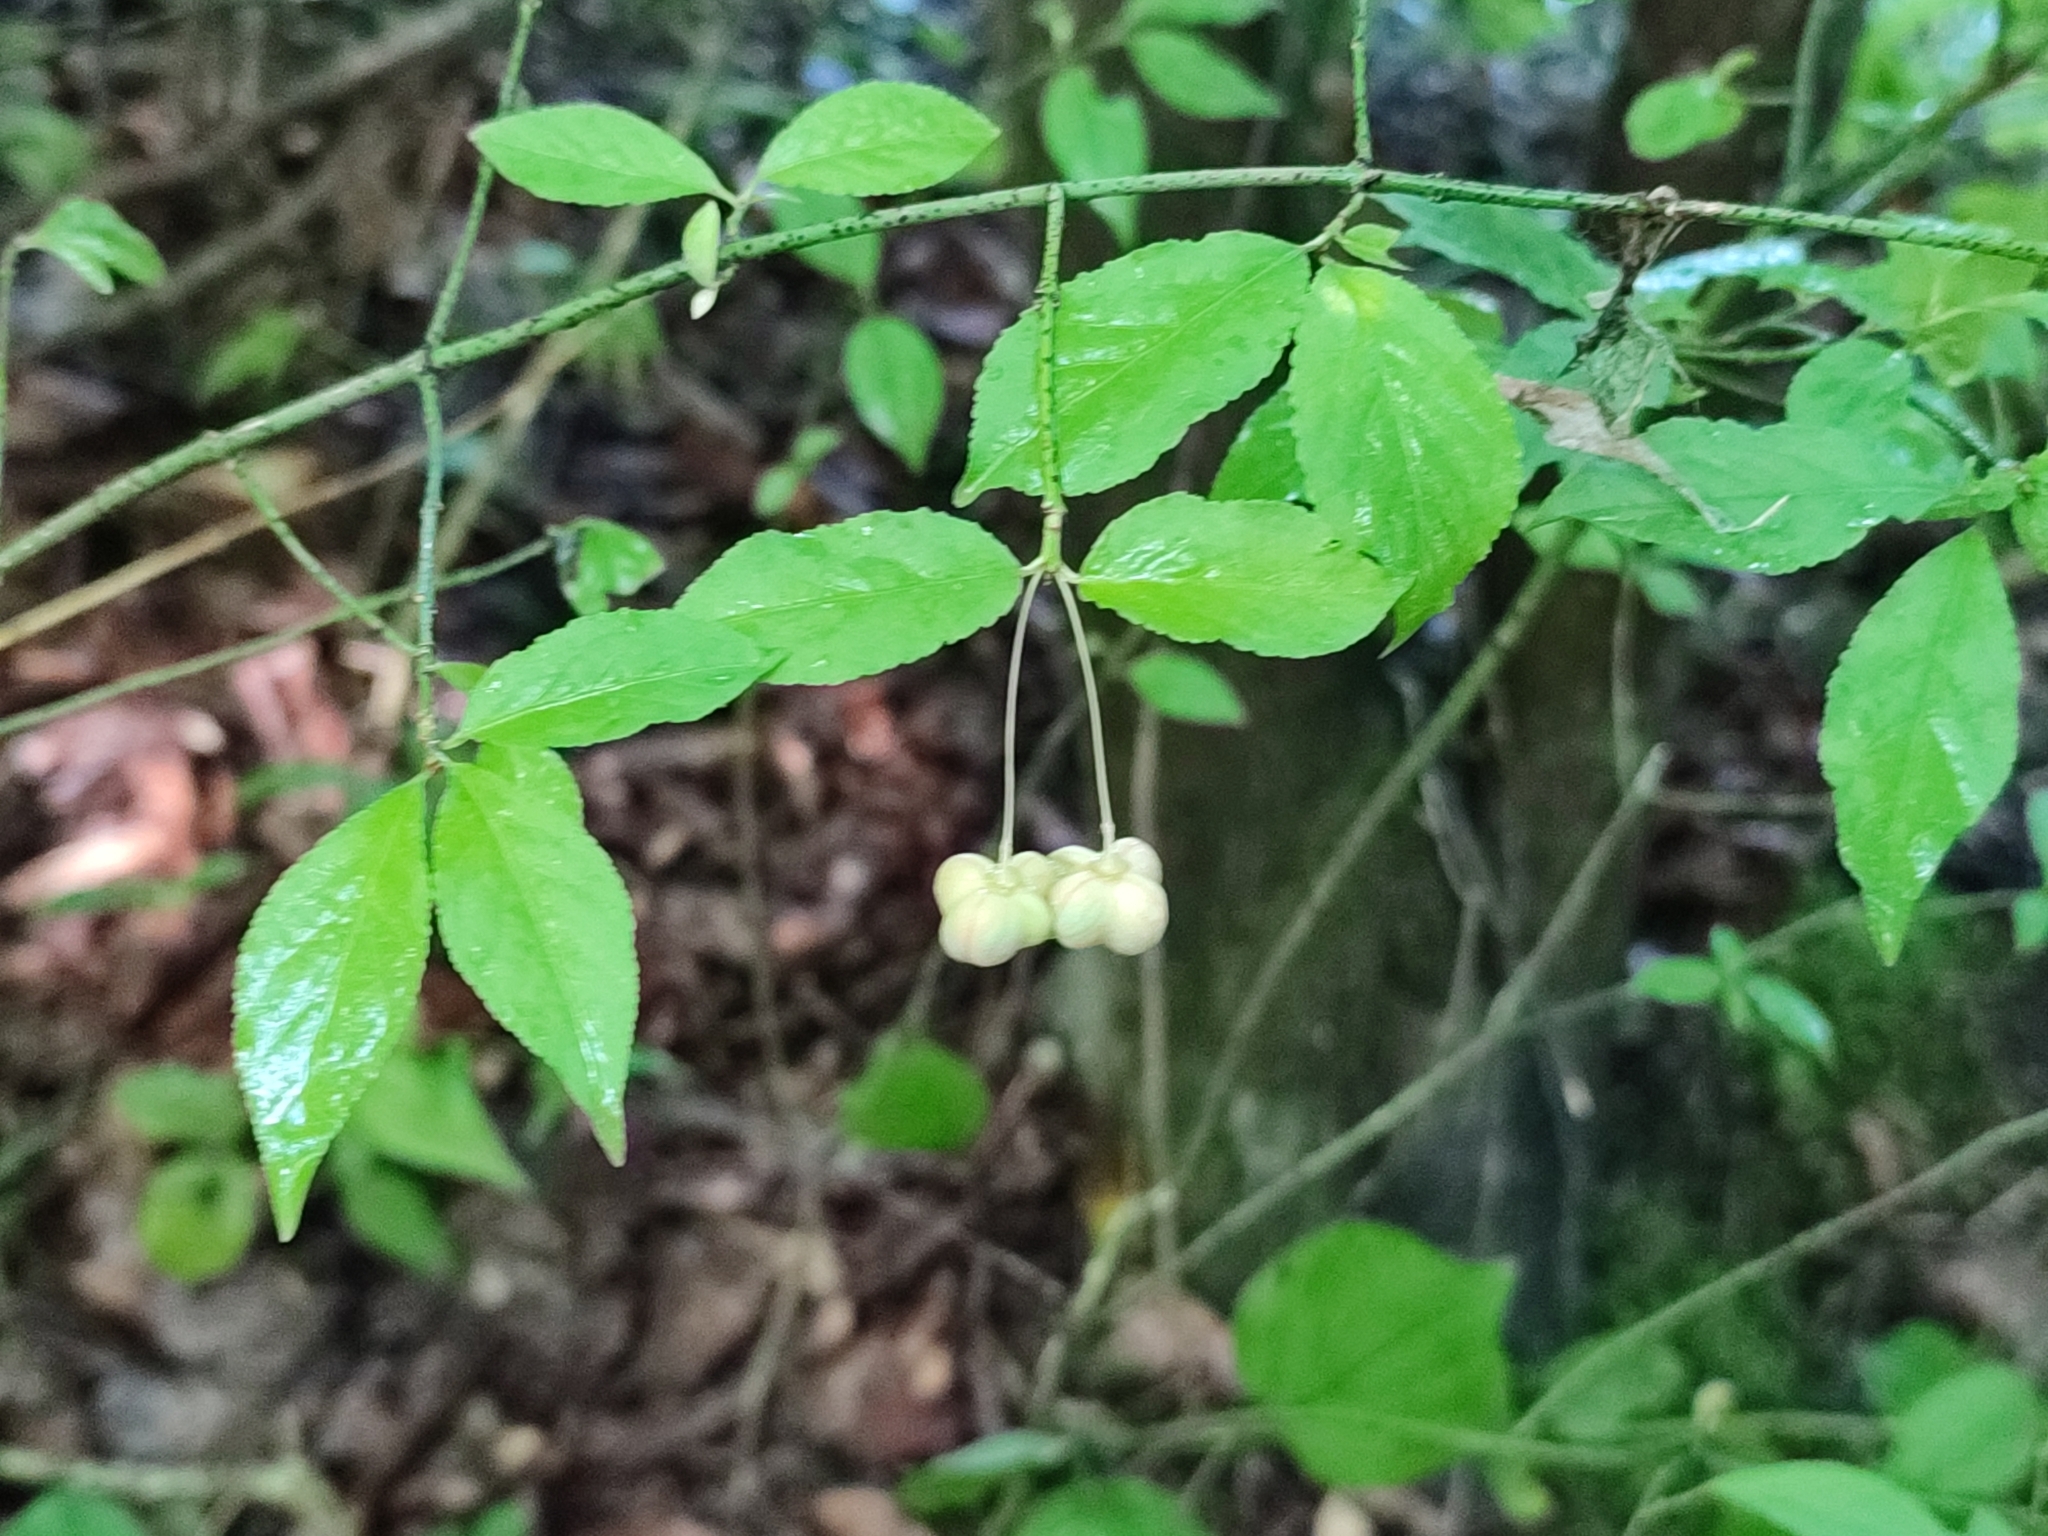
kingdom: Plantae
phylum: Tracheophyta
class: Magnoliopsida
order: Celastrales
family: Celastraceae
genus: Euonymus
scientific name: Euonymus verrucosus
